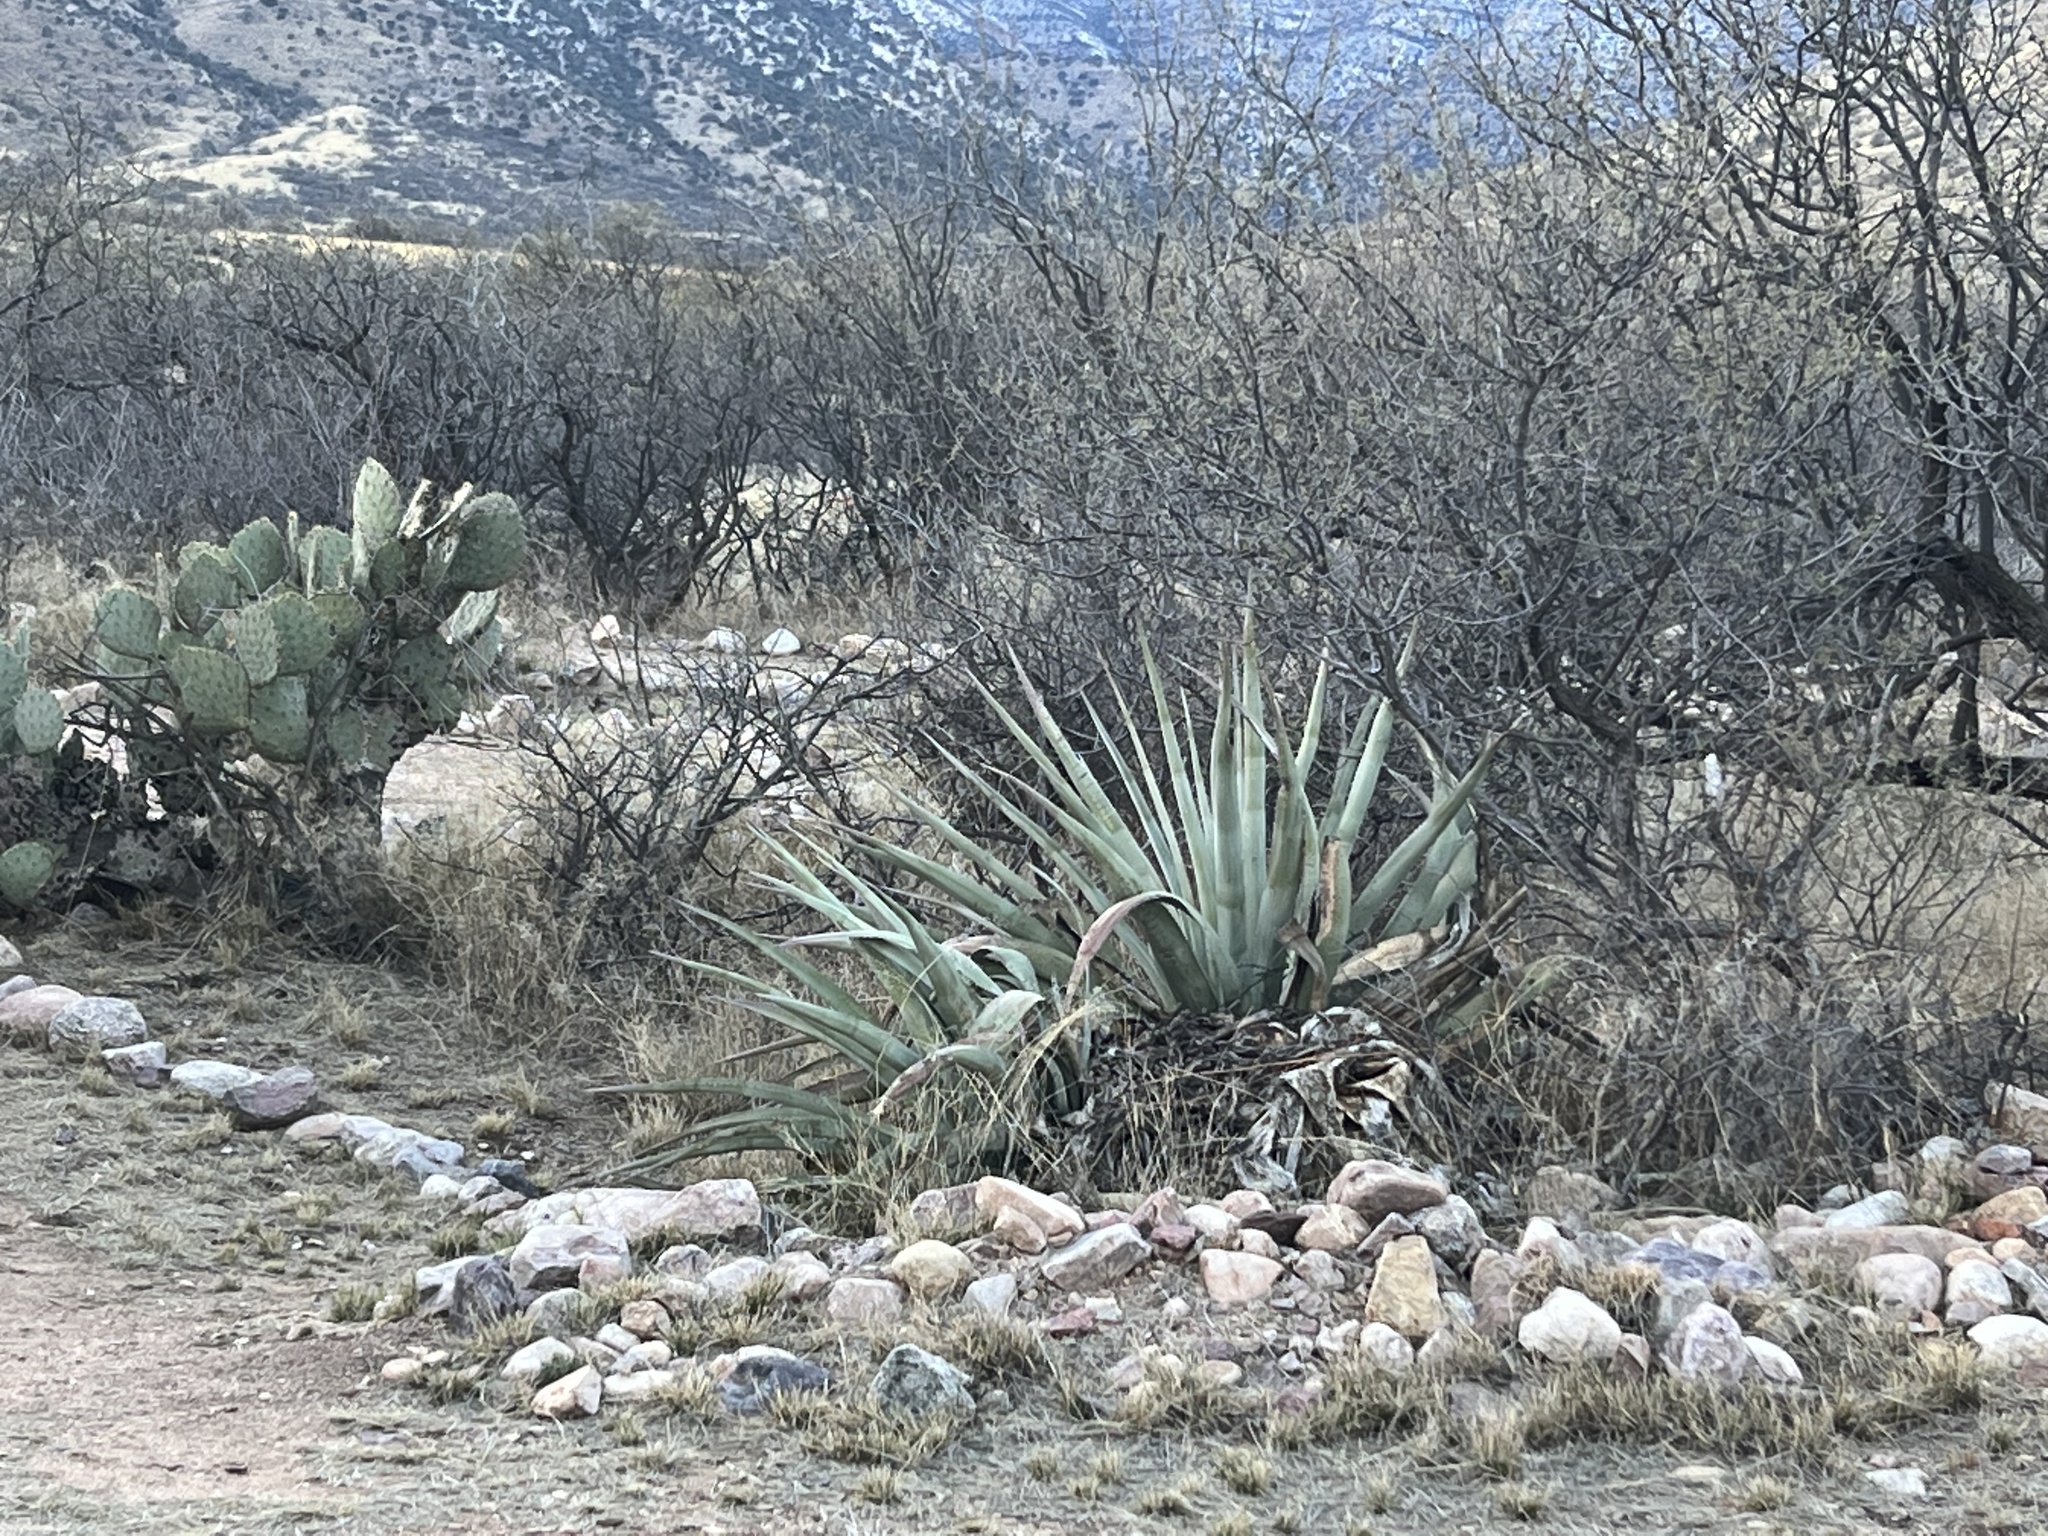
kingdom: Plantae
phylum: Tracheophyta
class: Liliopsida
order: Asparagales
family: Asparagaceae
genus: Agave
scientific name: Agave palmeri
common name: Palmer agave
